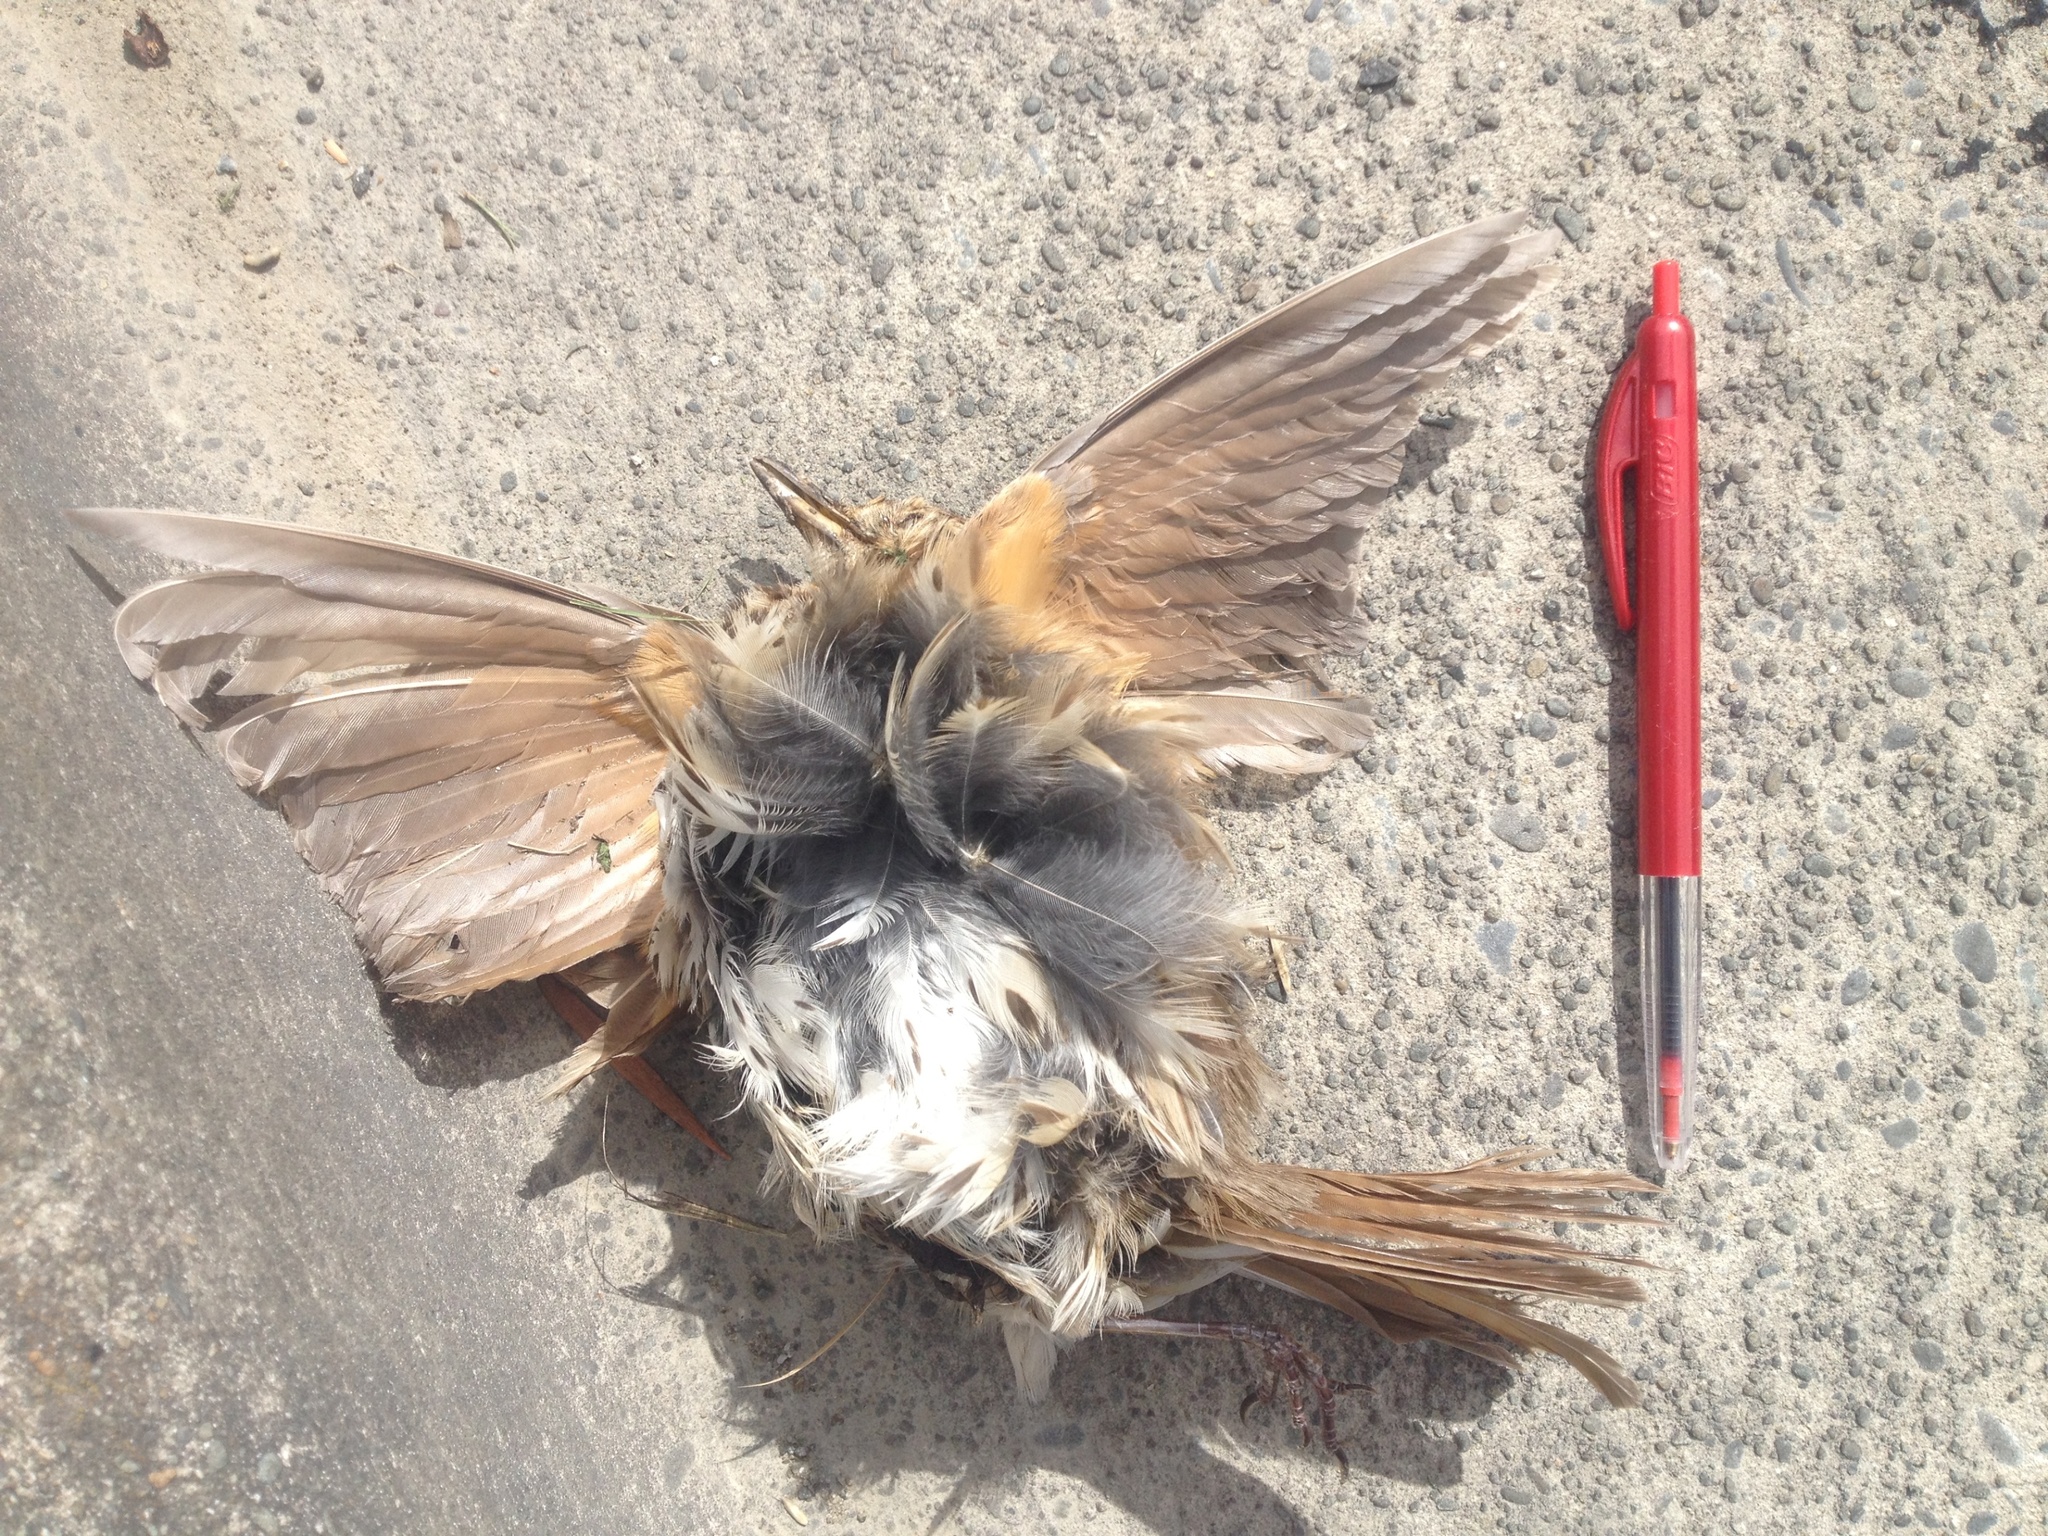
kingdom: Animalia
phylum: Chordata
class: Aves
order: Passeriformes
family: Turdidae
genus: Turdus
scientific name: Turdus philomelos
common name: Song thrush
